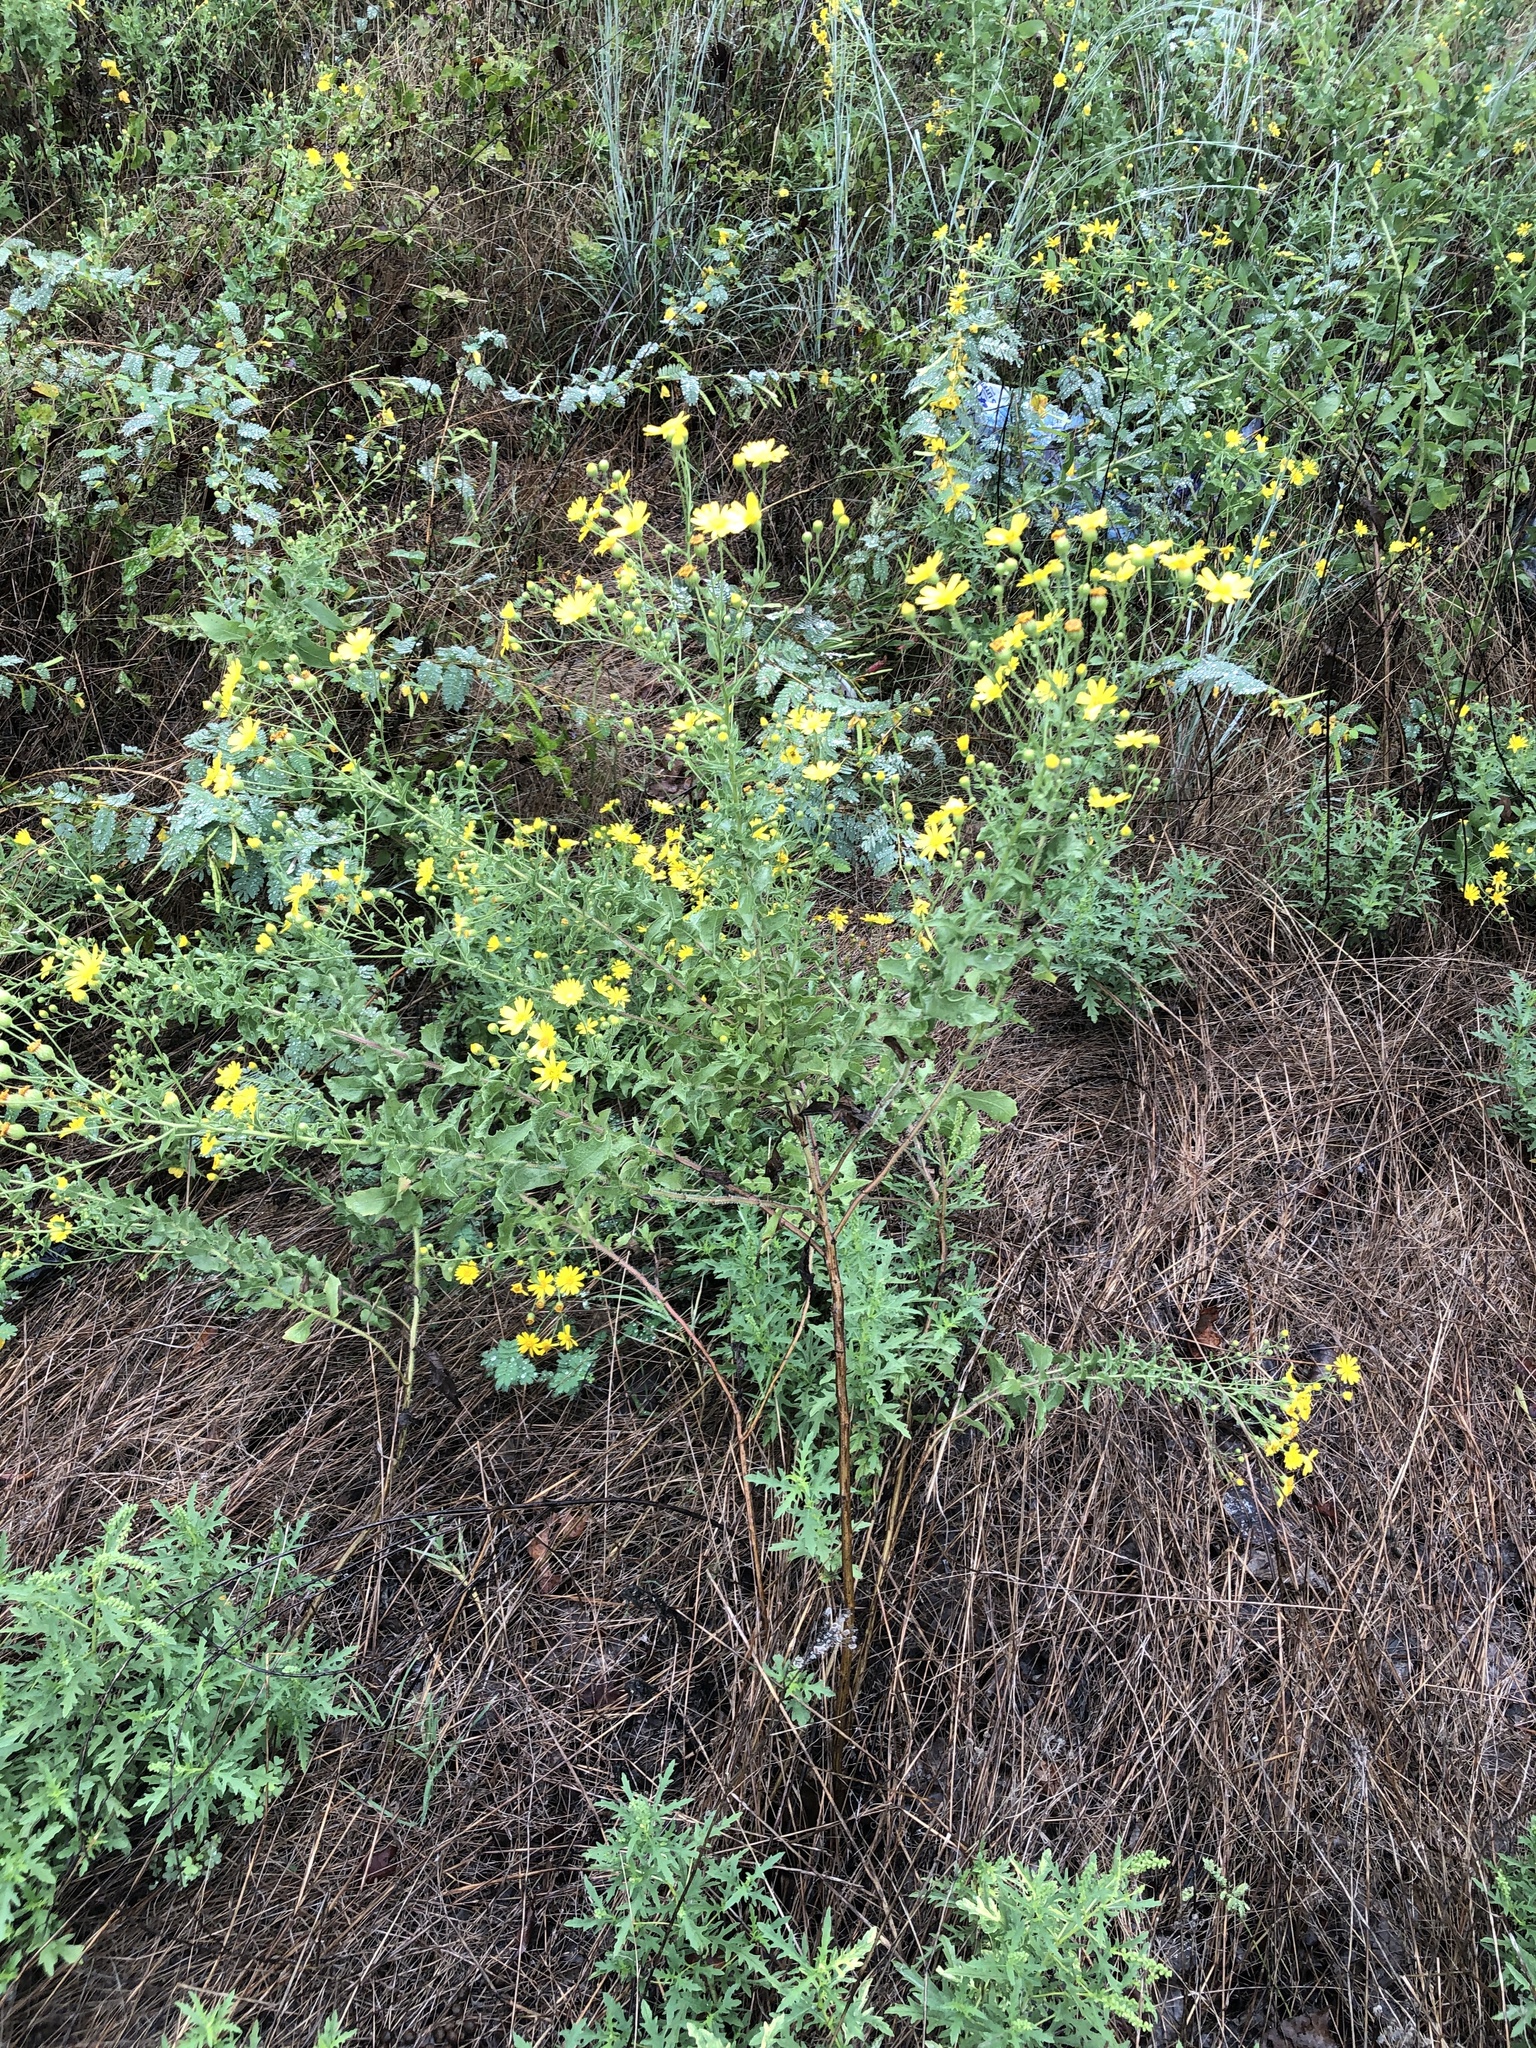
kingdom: Plantae
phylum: Tracheophyta
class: Magnoliopsida
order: Asterales
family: Asteraceae
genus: Heterotheca
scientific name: Heterotheca subaxillaris
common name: Camphorweed
